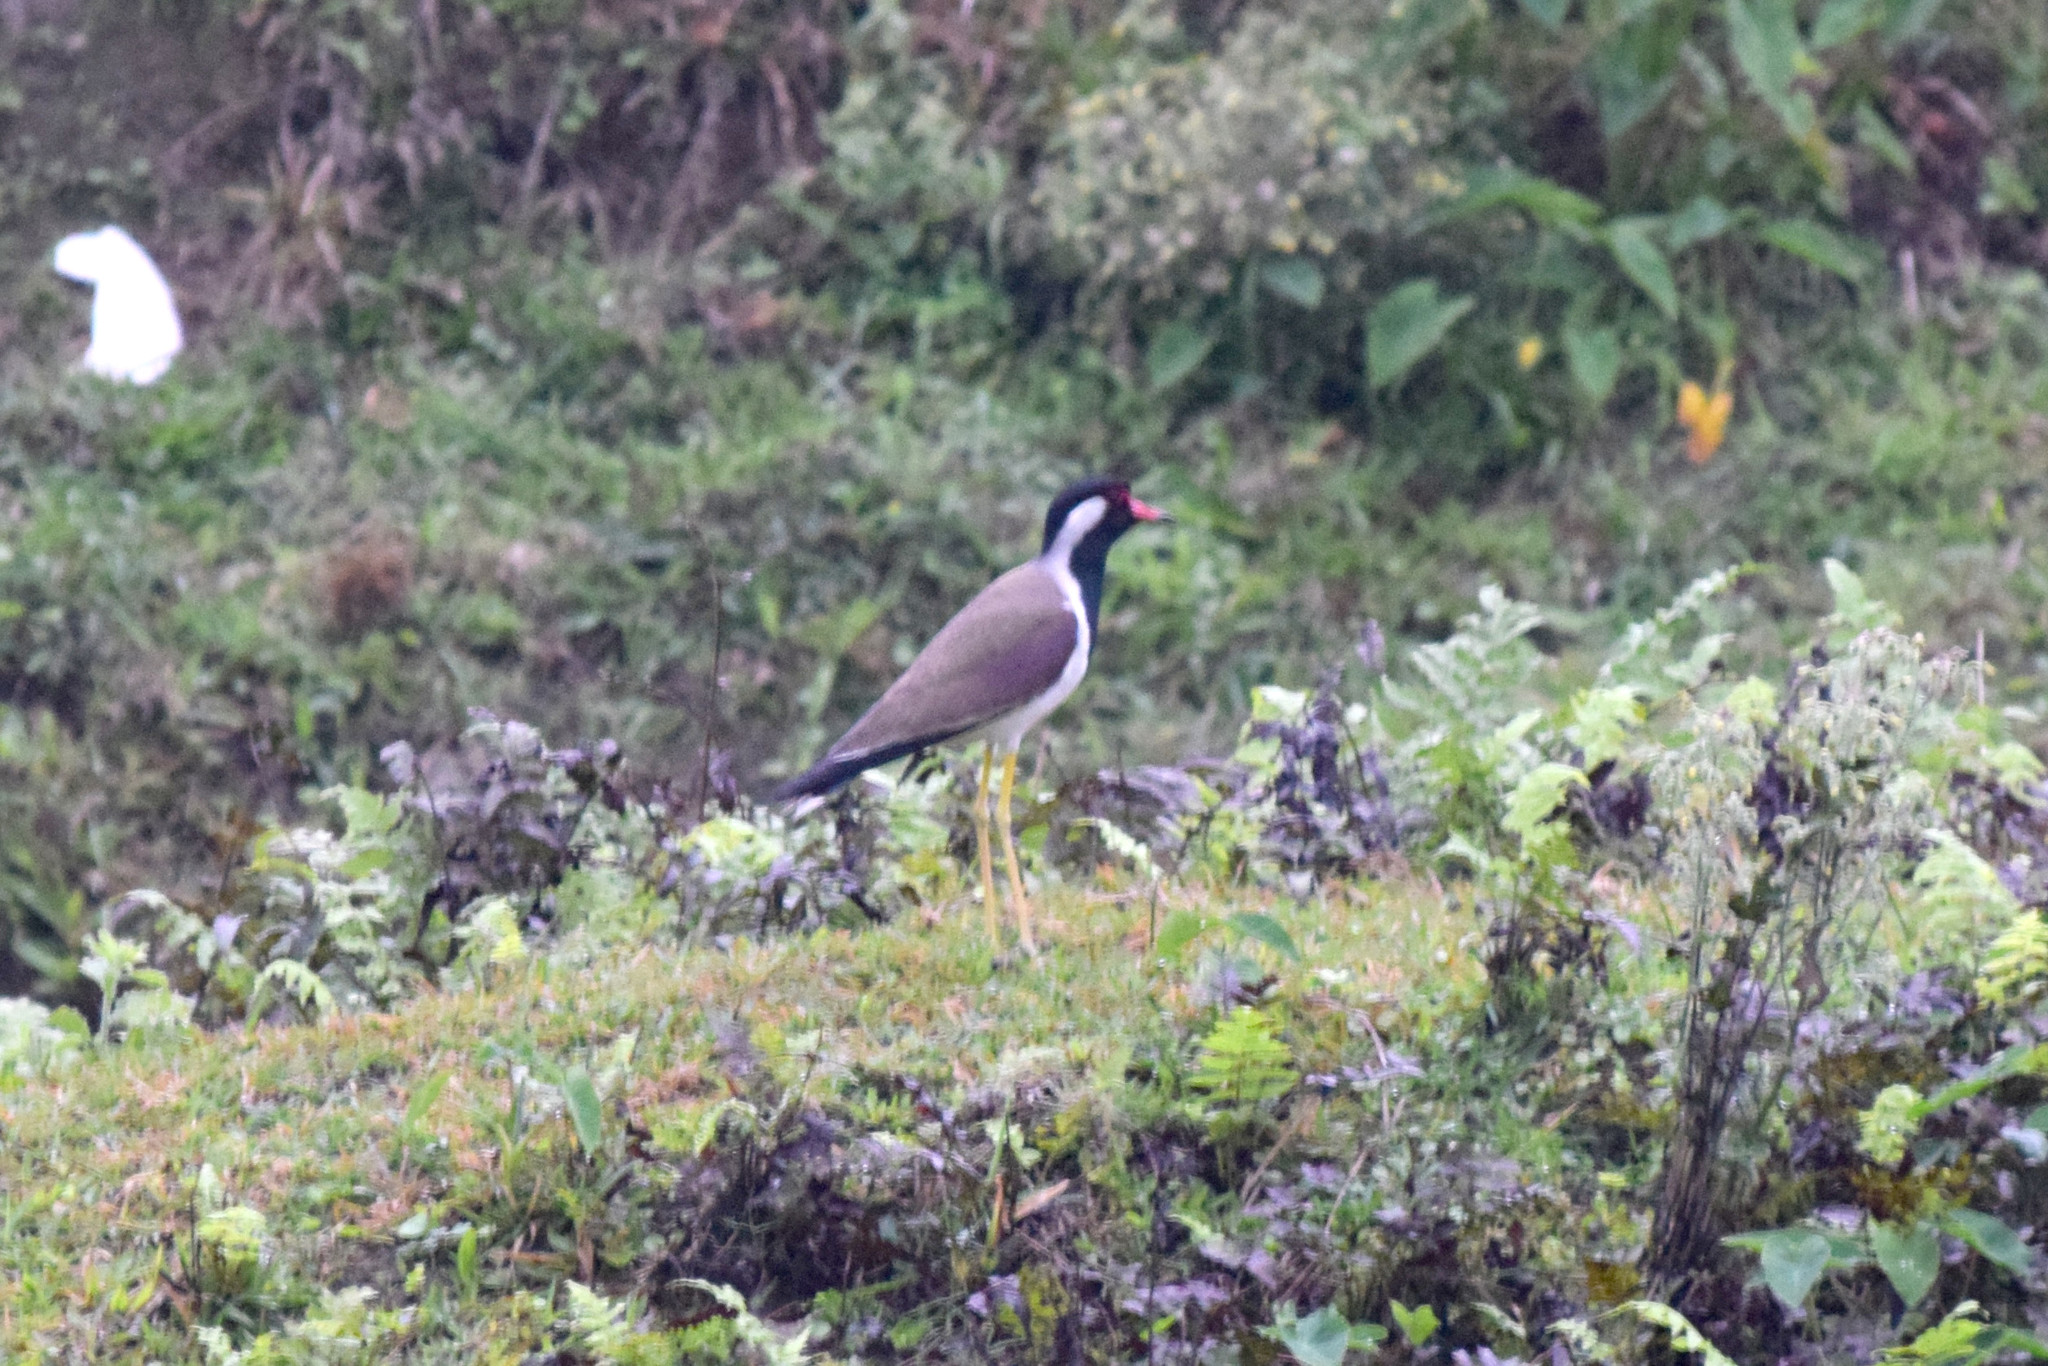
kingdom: Animalia
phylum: Chordata
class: Aves
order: Charadriiformes
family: Charadriidae
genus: Vanellus
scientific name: Vanellus indicus
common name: Red-wattled lapwing
